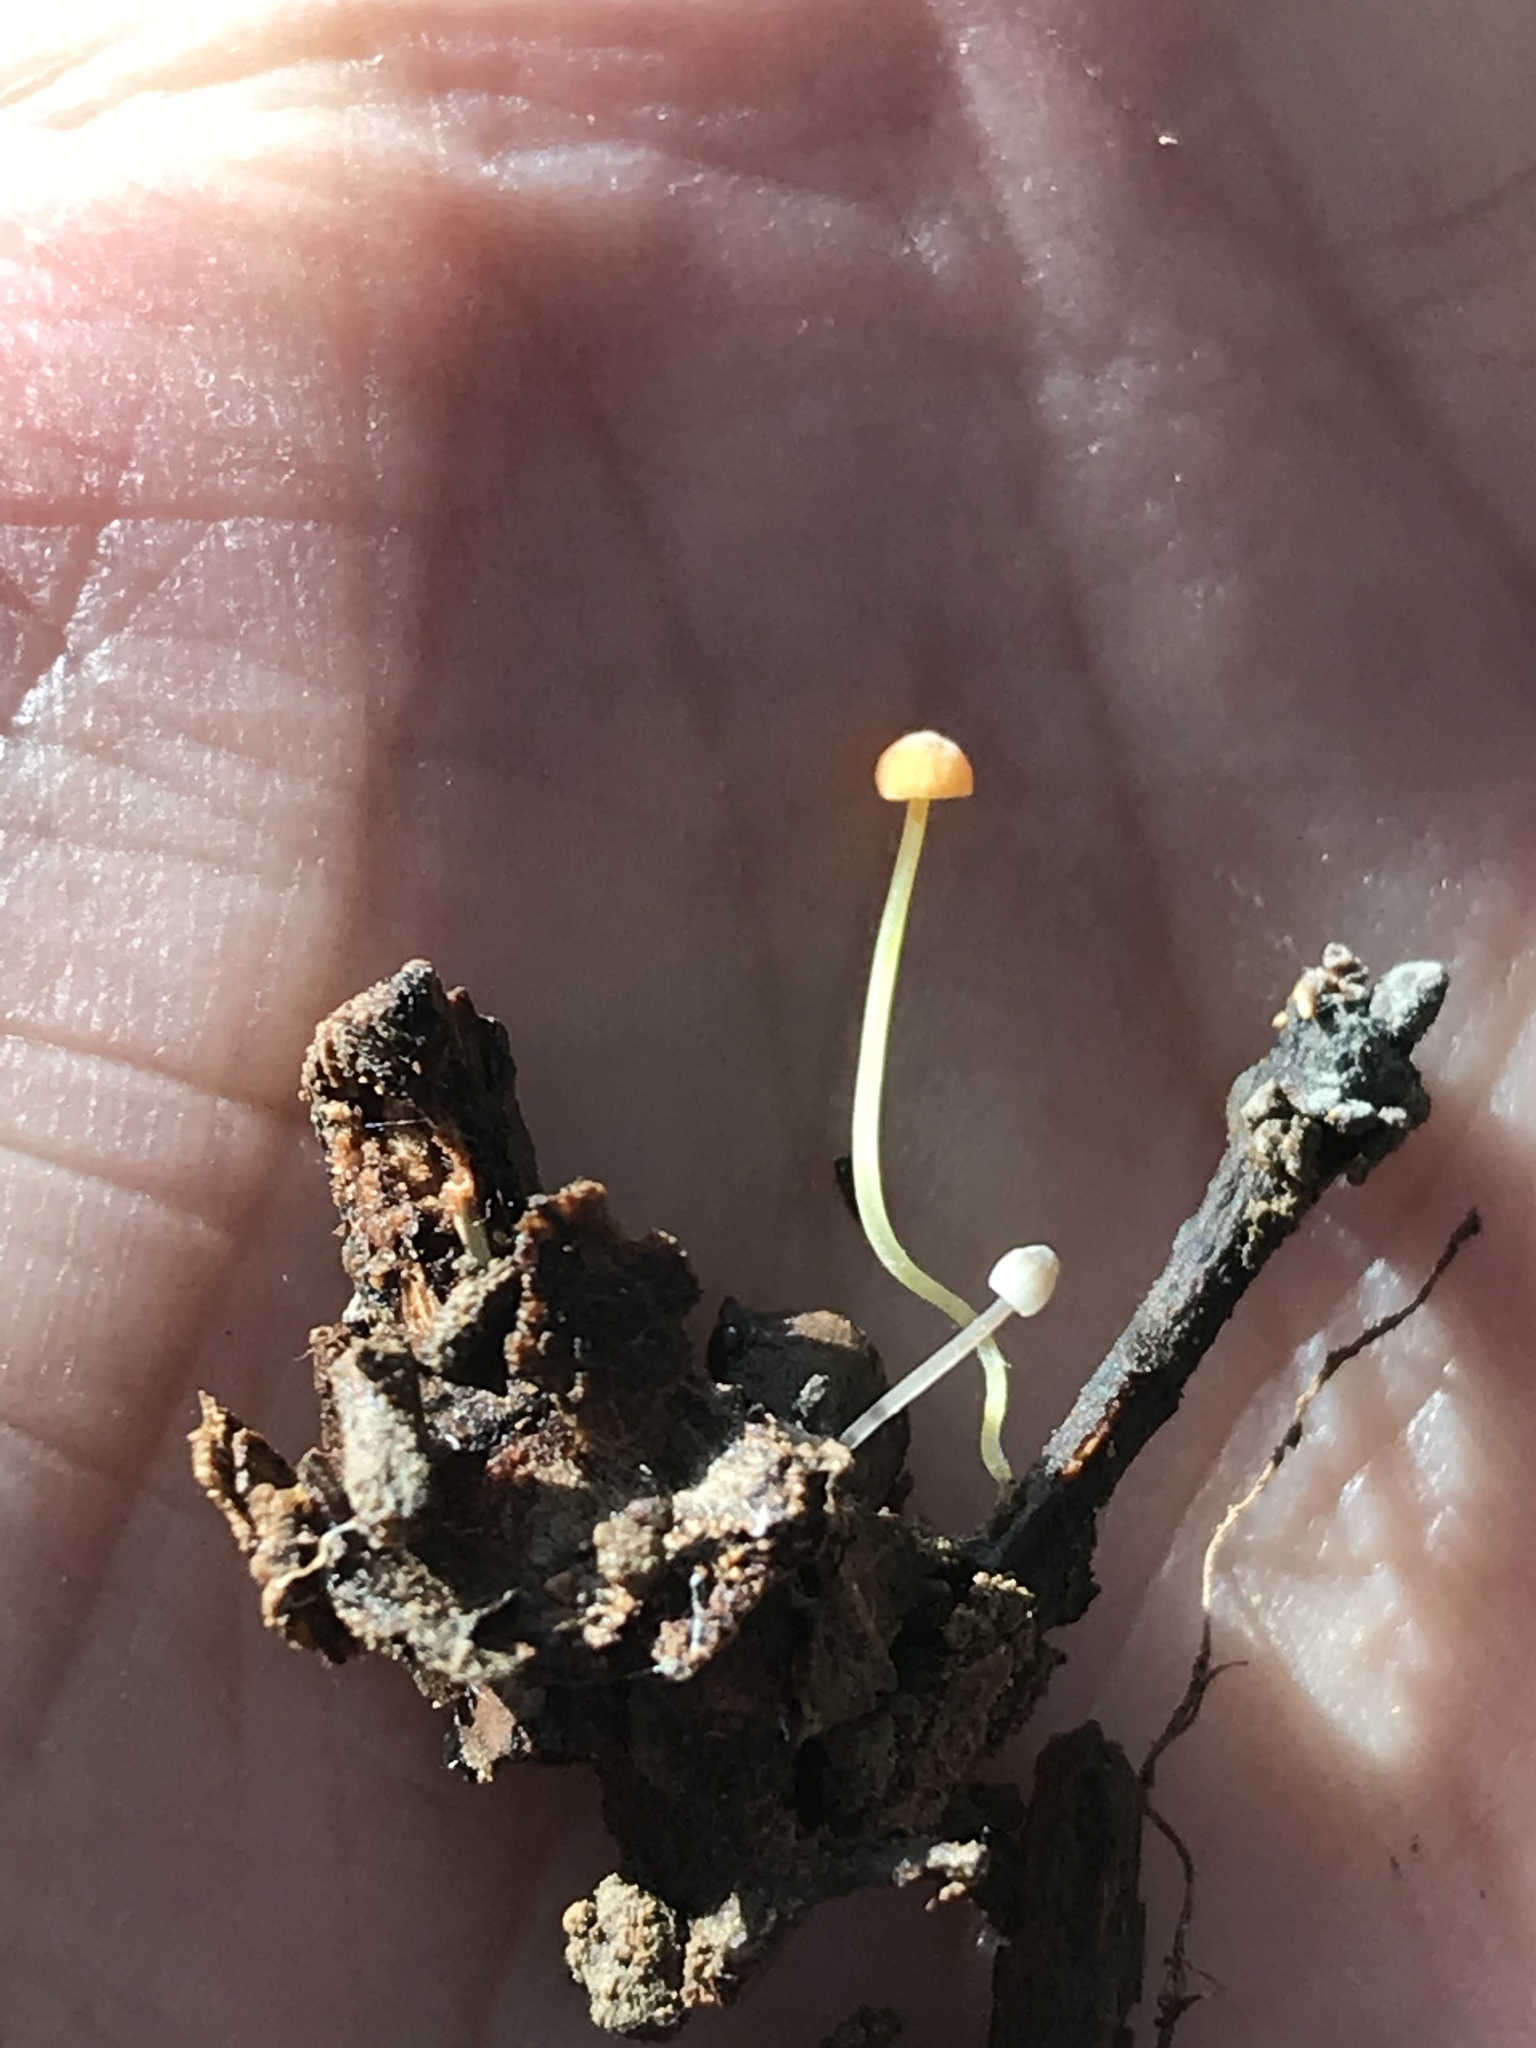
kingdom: Fungi
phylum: Basidiomycota
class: Agaricomycetes
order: Agaricales
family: Mycenaceae
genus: Mycena
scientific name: Mycena acicula
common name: Orange bonnet
